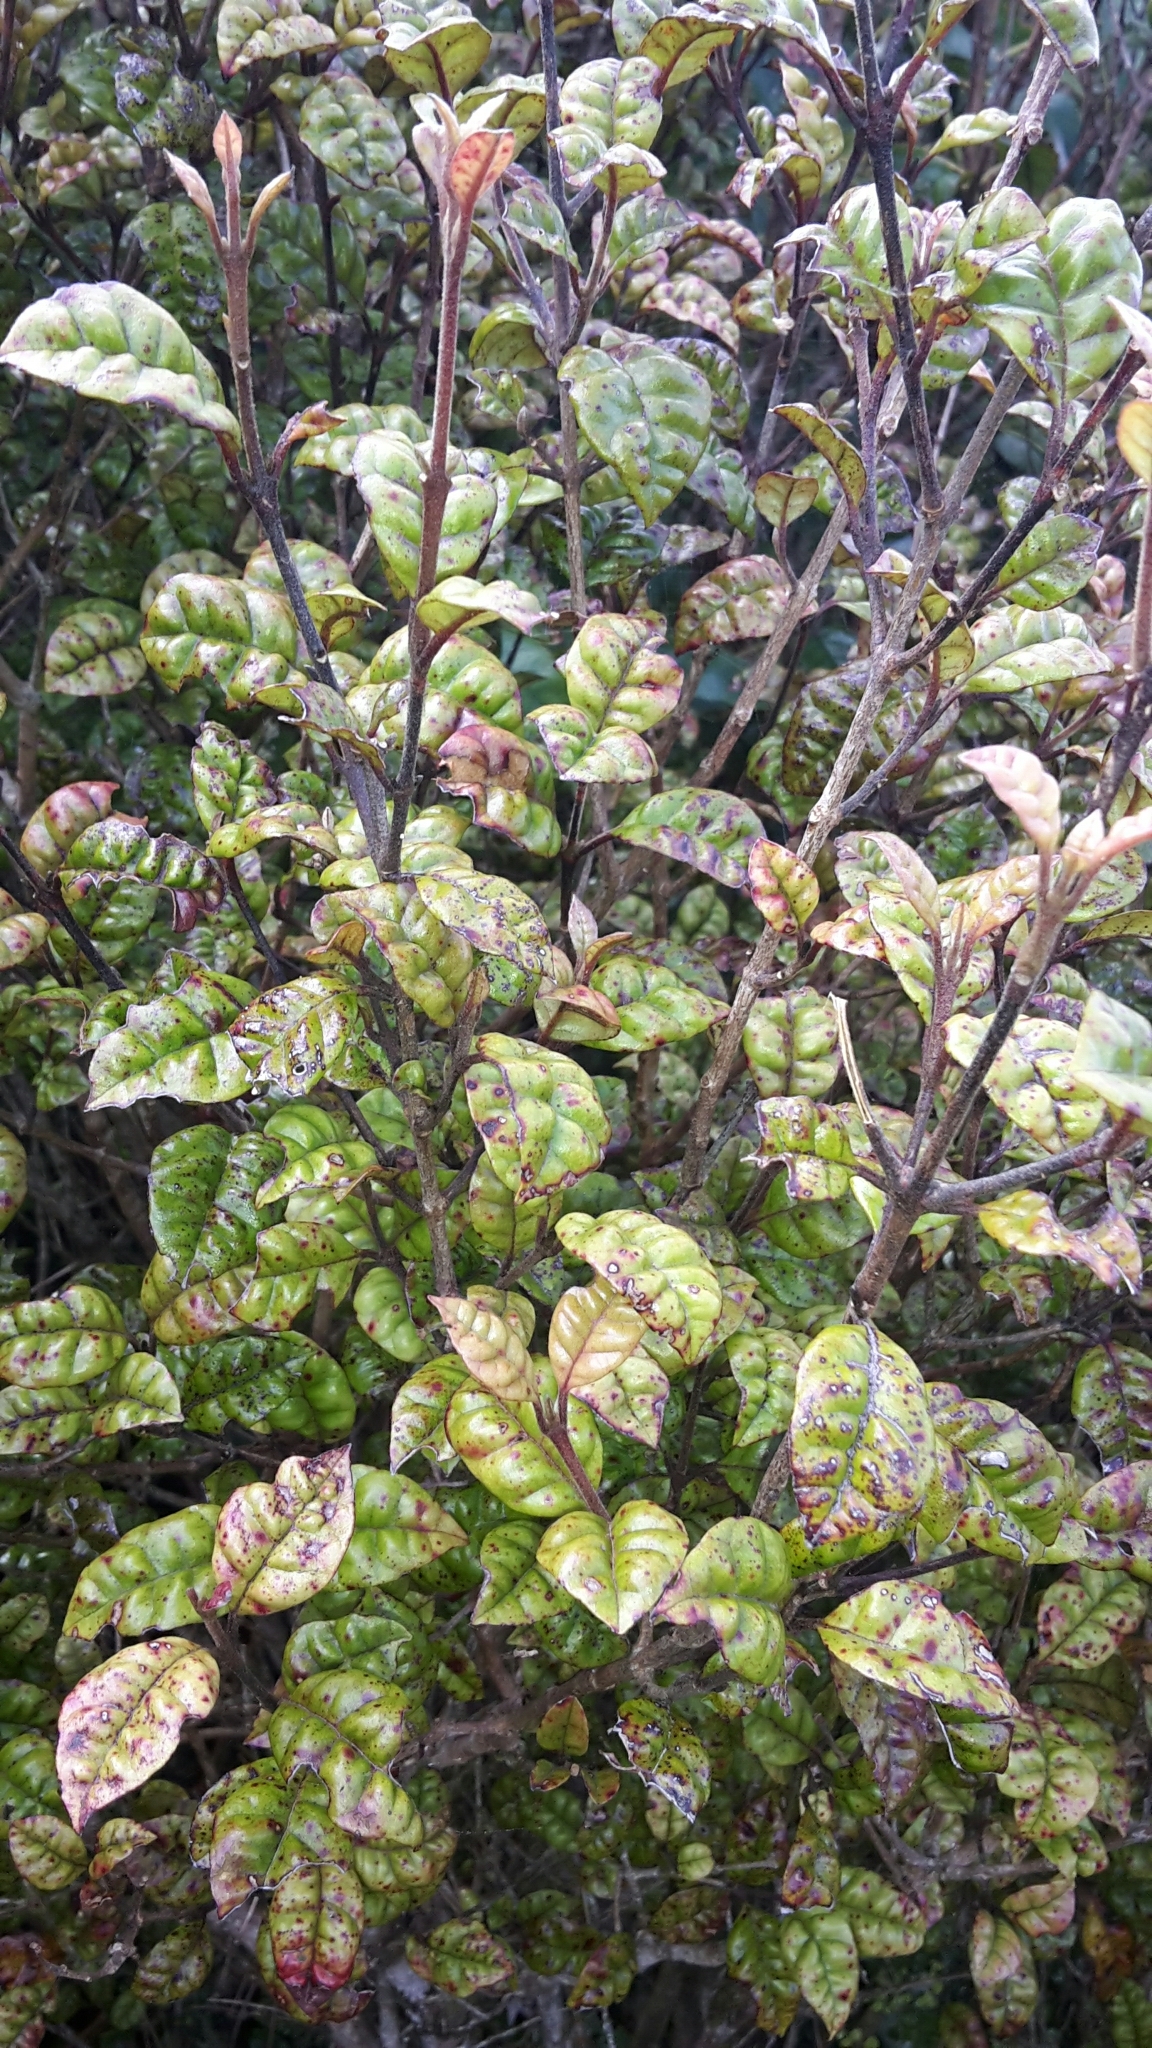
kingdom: Plantae
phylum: Tracheophyta
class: Magnoliopsida
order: Myrtales
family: Myrtaceae
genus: Lophomyrtus
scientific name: Lophomyrtus bullata
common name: Rama rama
